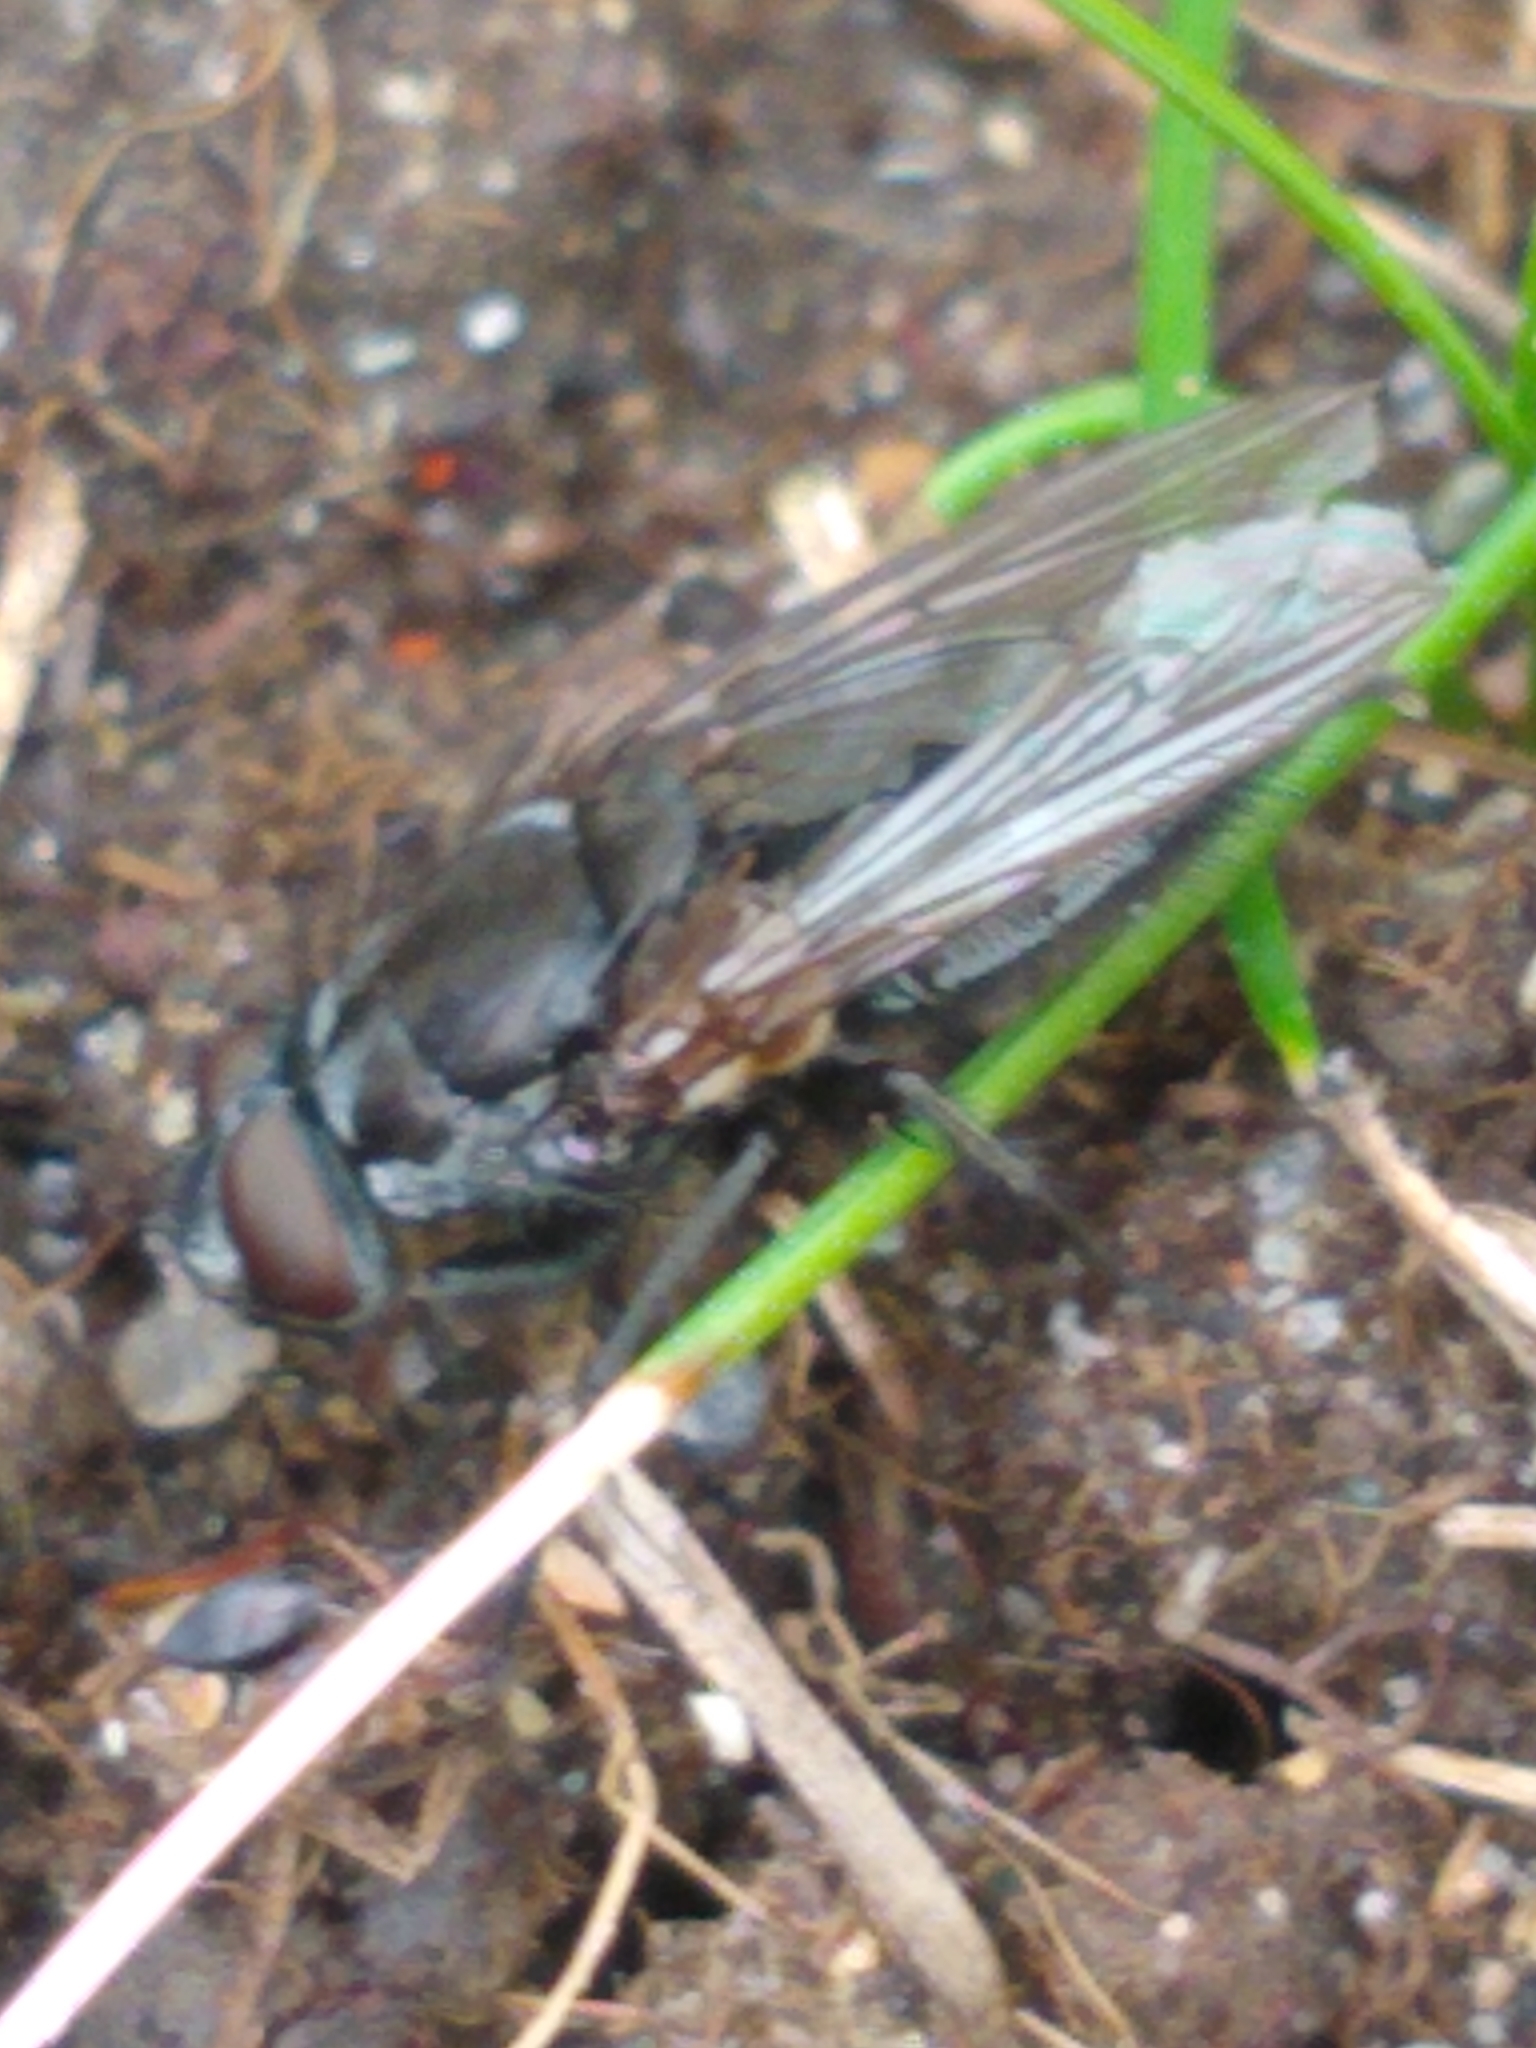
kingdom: Animalia
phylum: Arthropoda
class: Insecta
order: Diptera
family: Polleniidae
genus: Pollenia
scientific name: Pollenia vagabunda
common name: Vagabund cluster fly
